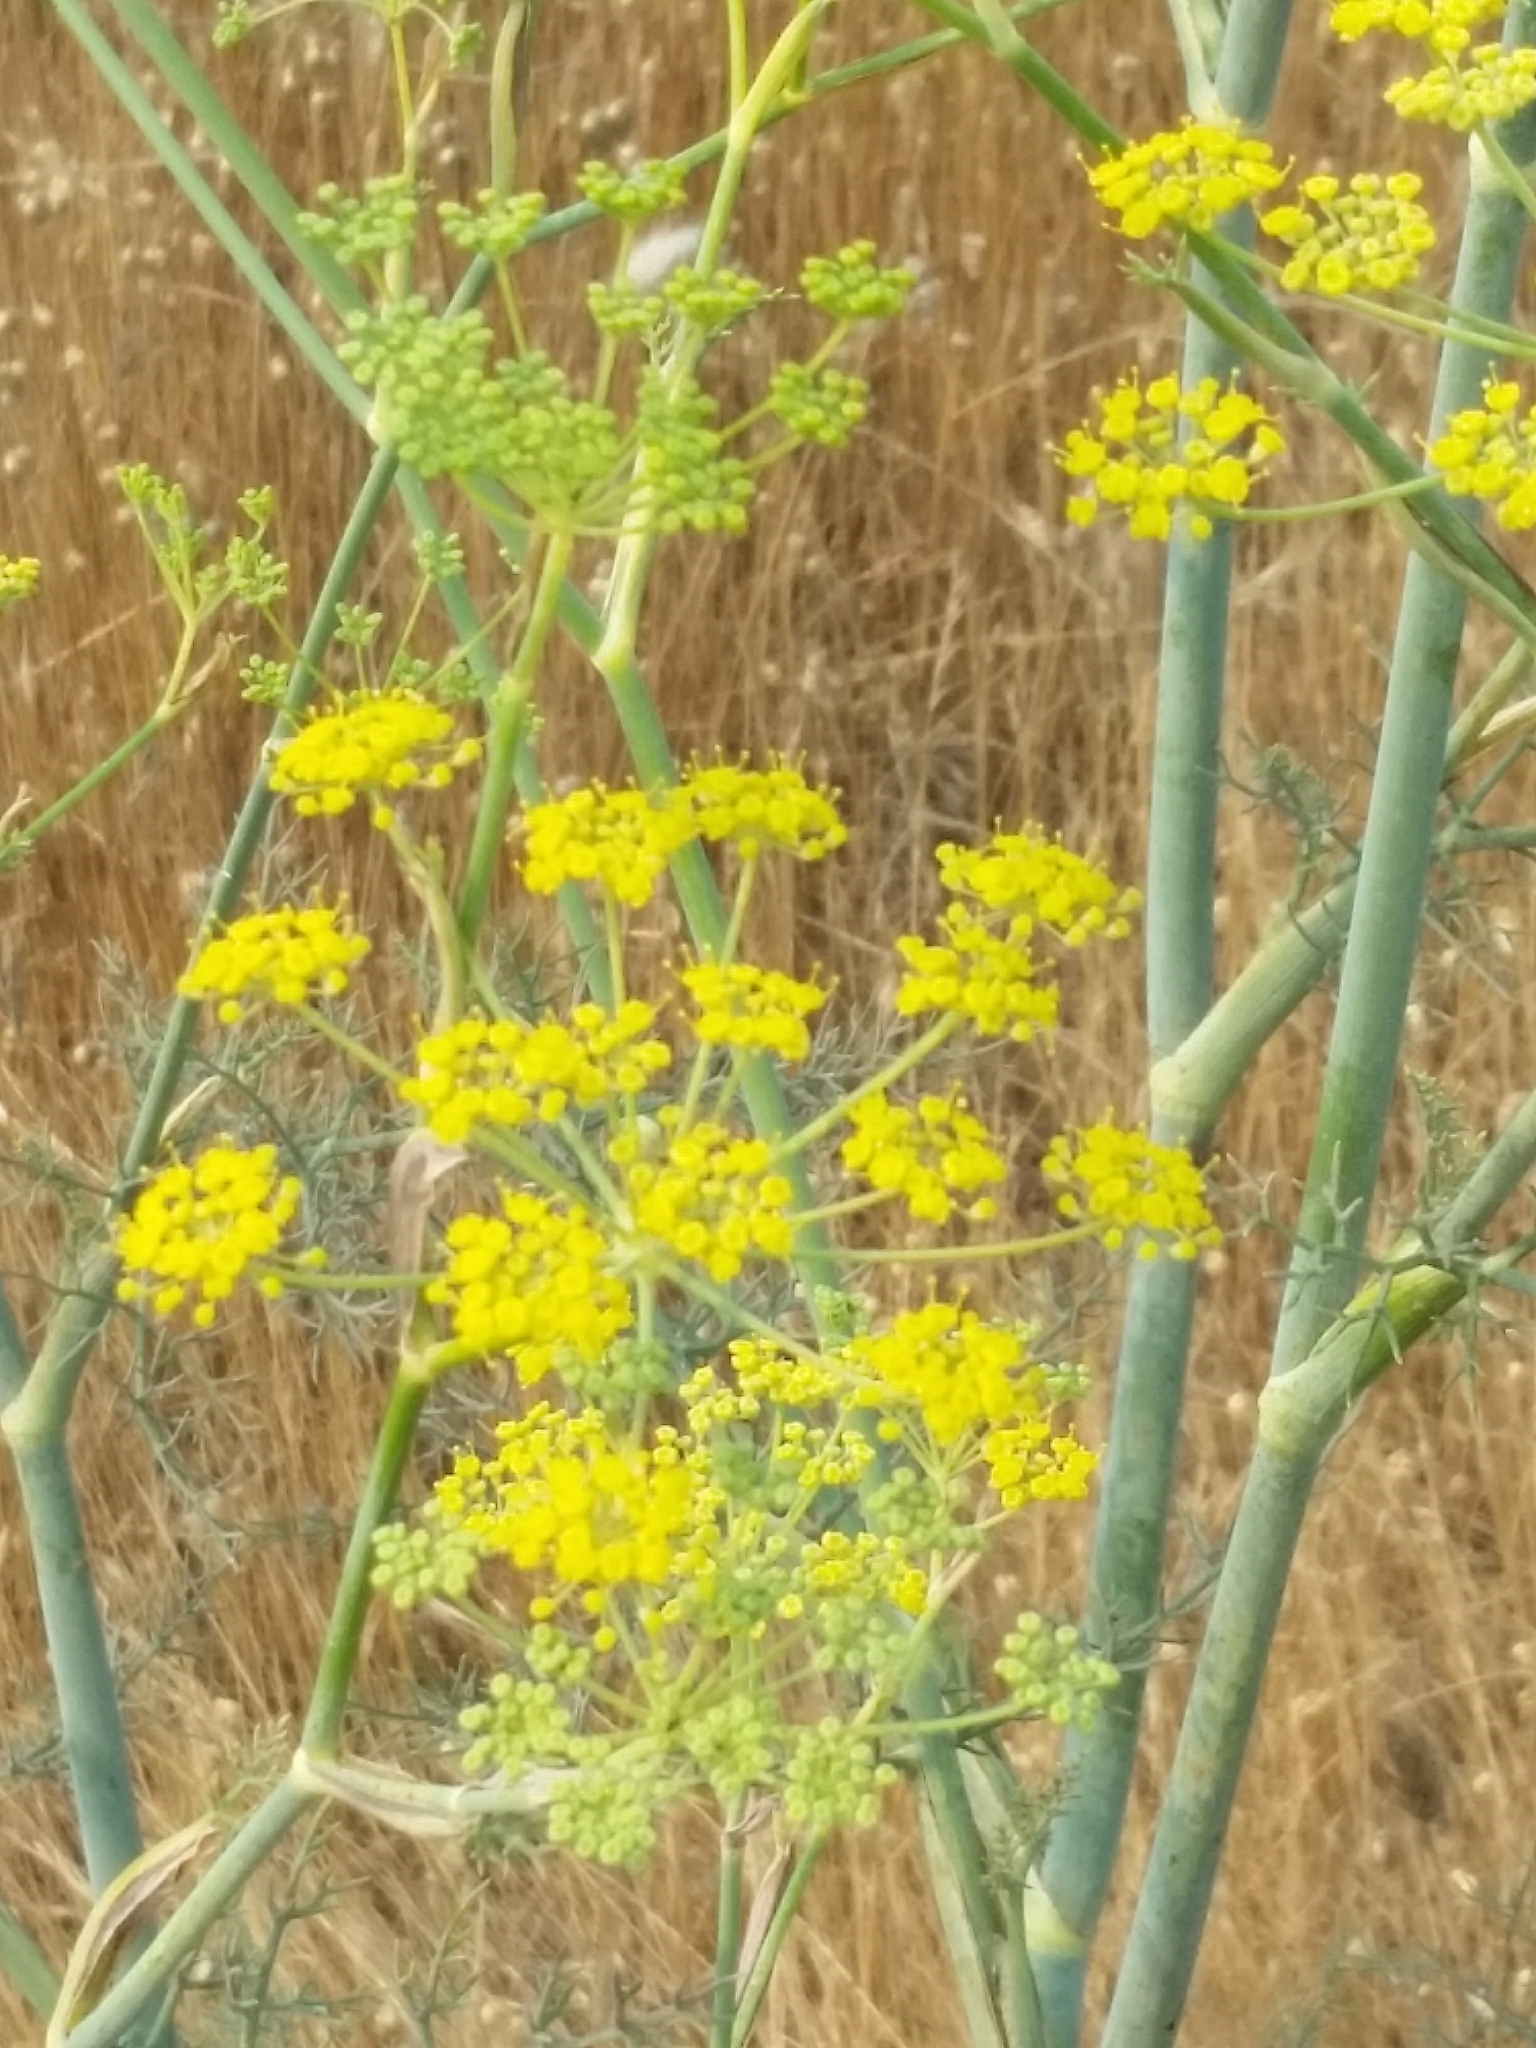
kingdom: Plantae
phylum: Tracheophyta
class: Magnoliopsida
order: Apiales
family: Apiaceae
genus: Foeniculum
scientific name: Foeniculum vulgare
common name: Fennel
